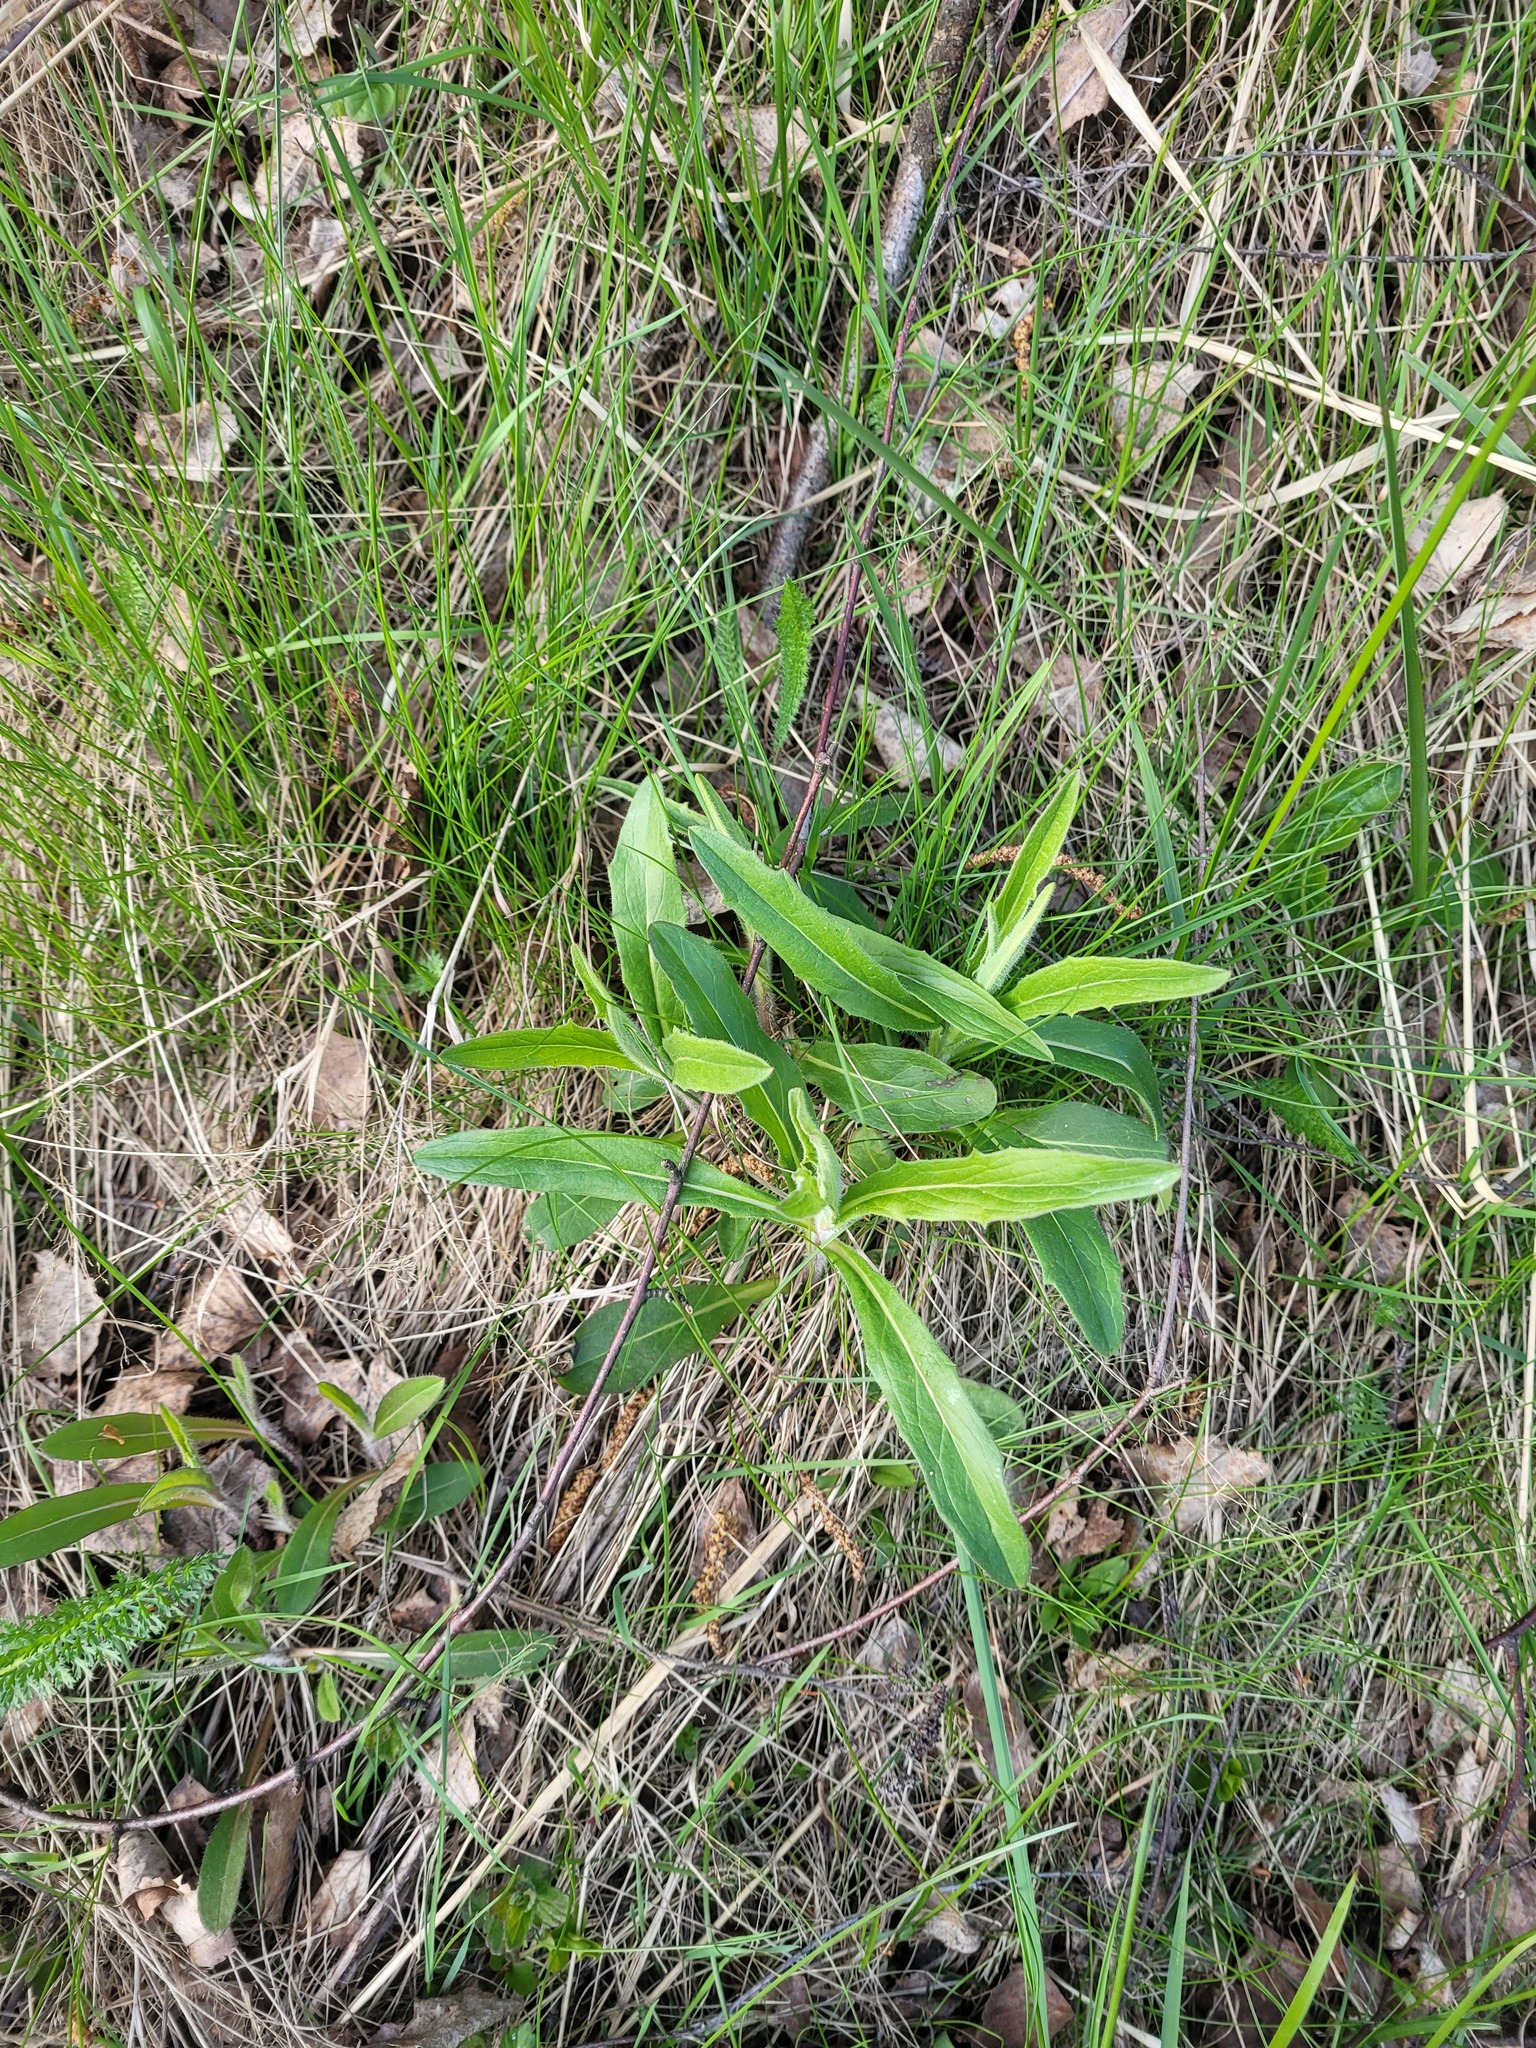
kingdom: Plantae
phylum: Tracheophyta
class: Magnoliopsida
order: Asterales
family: Asteraceae
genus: Hieracium
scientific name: Hieracium umbellatum
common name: Northern hawkweed
